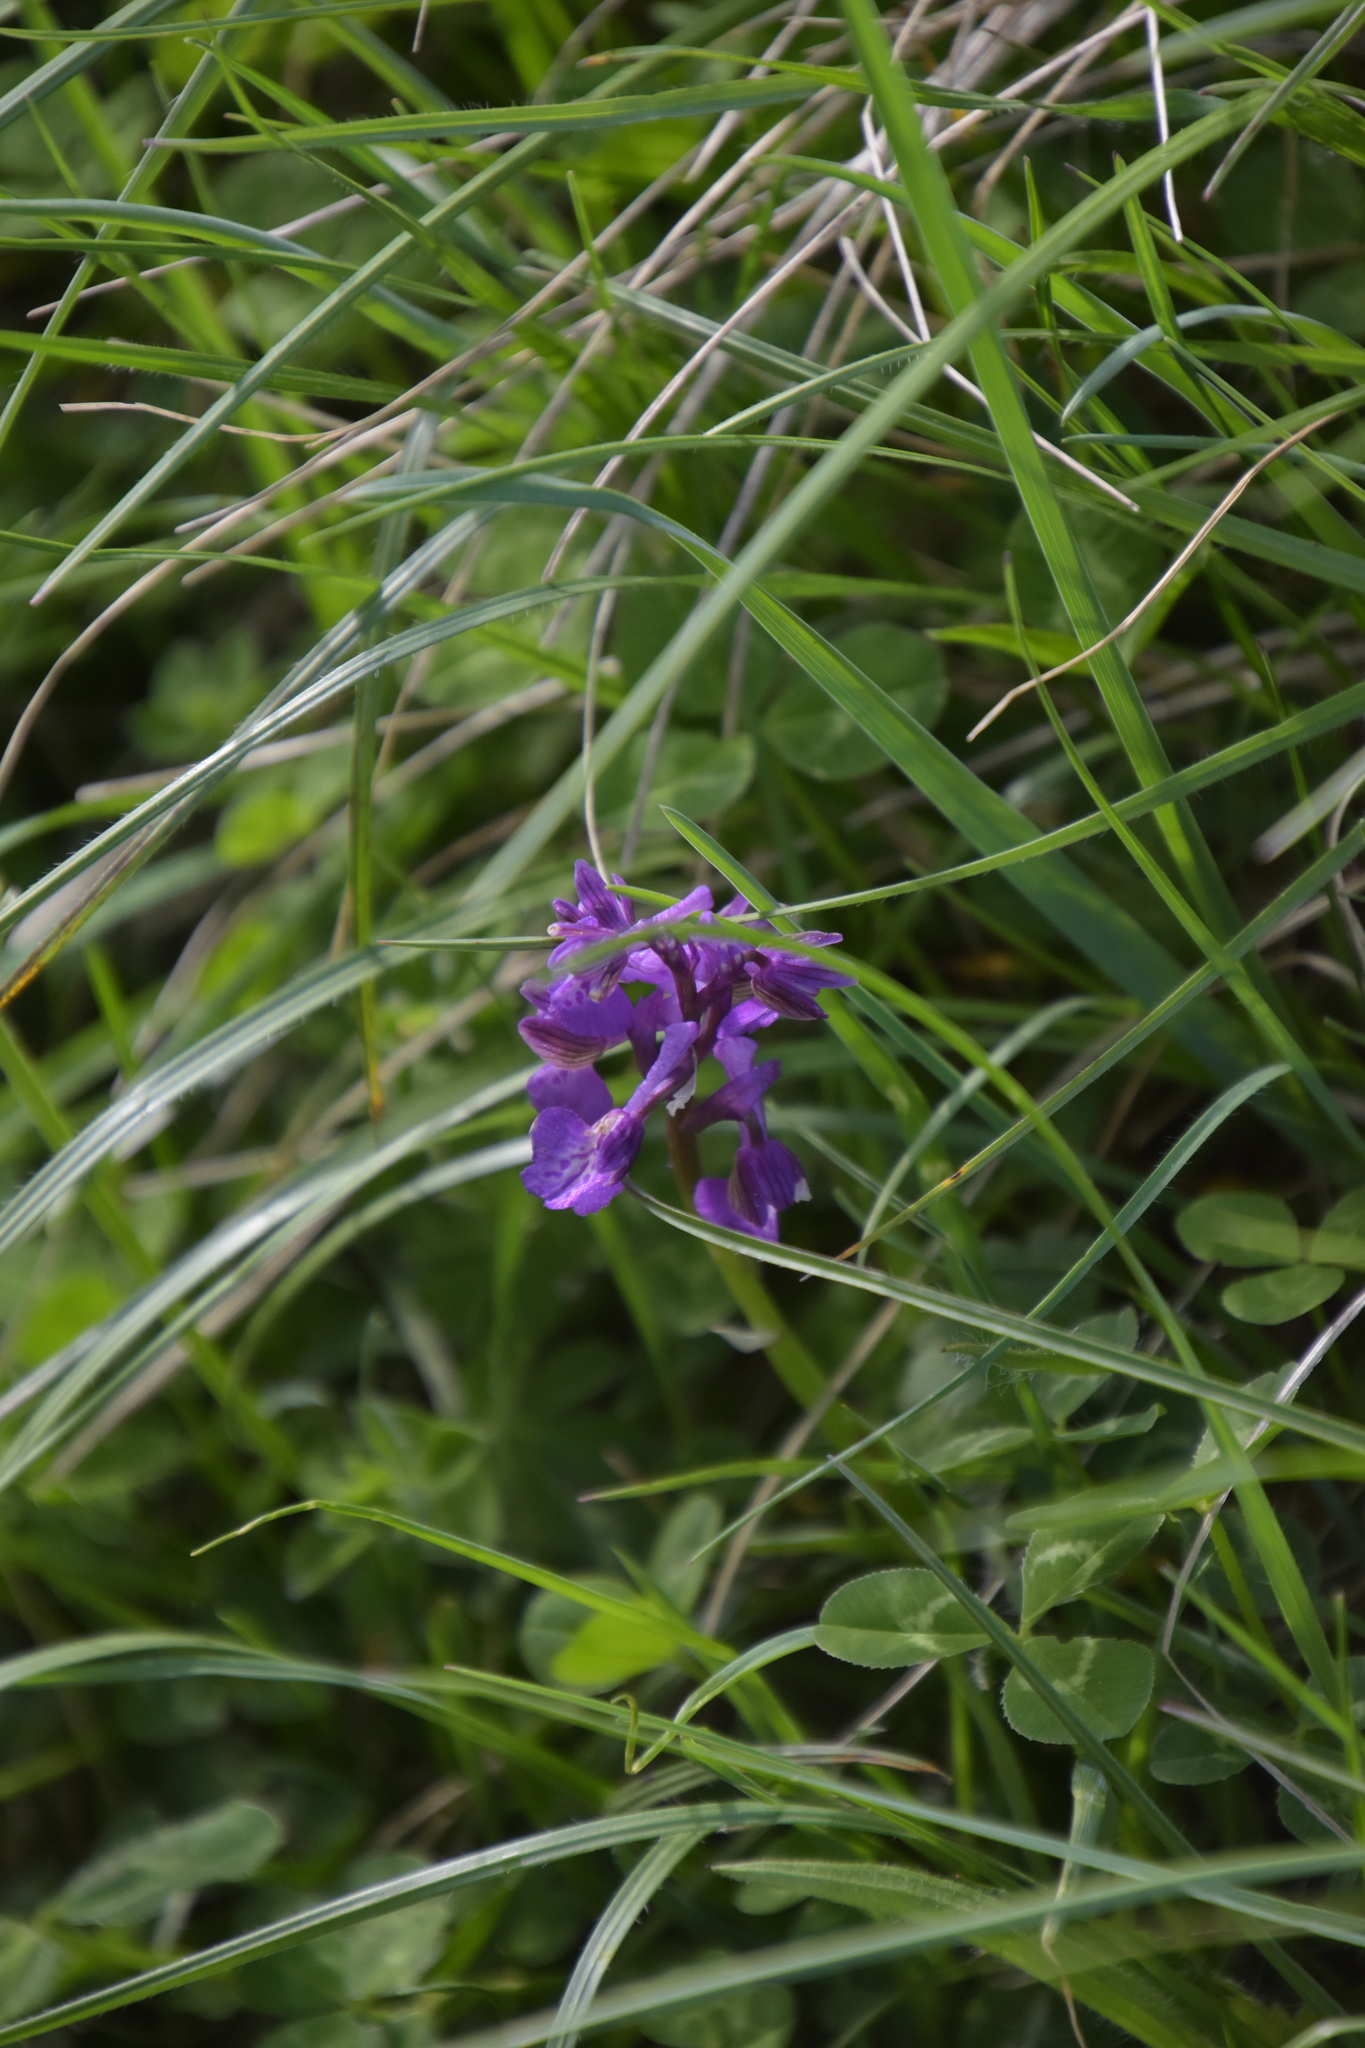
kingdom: Plantae
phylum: Tracheophyta
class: Liliopsida
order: Asparagales
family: Orchidaceae
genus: Anacamptis
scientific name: Anacamptis morio
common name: Green-winged orchid
